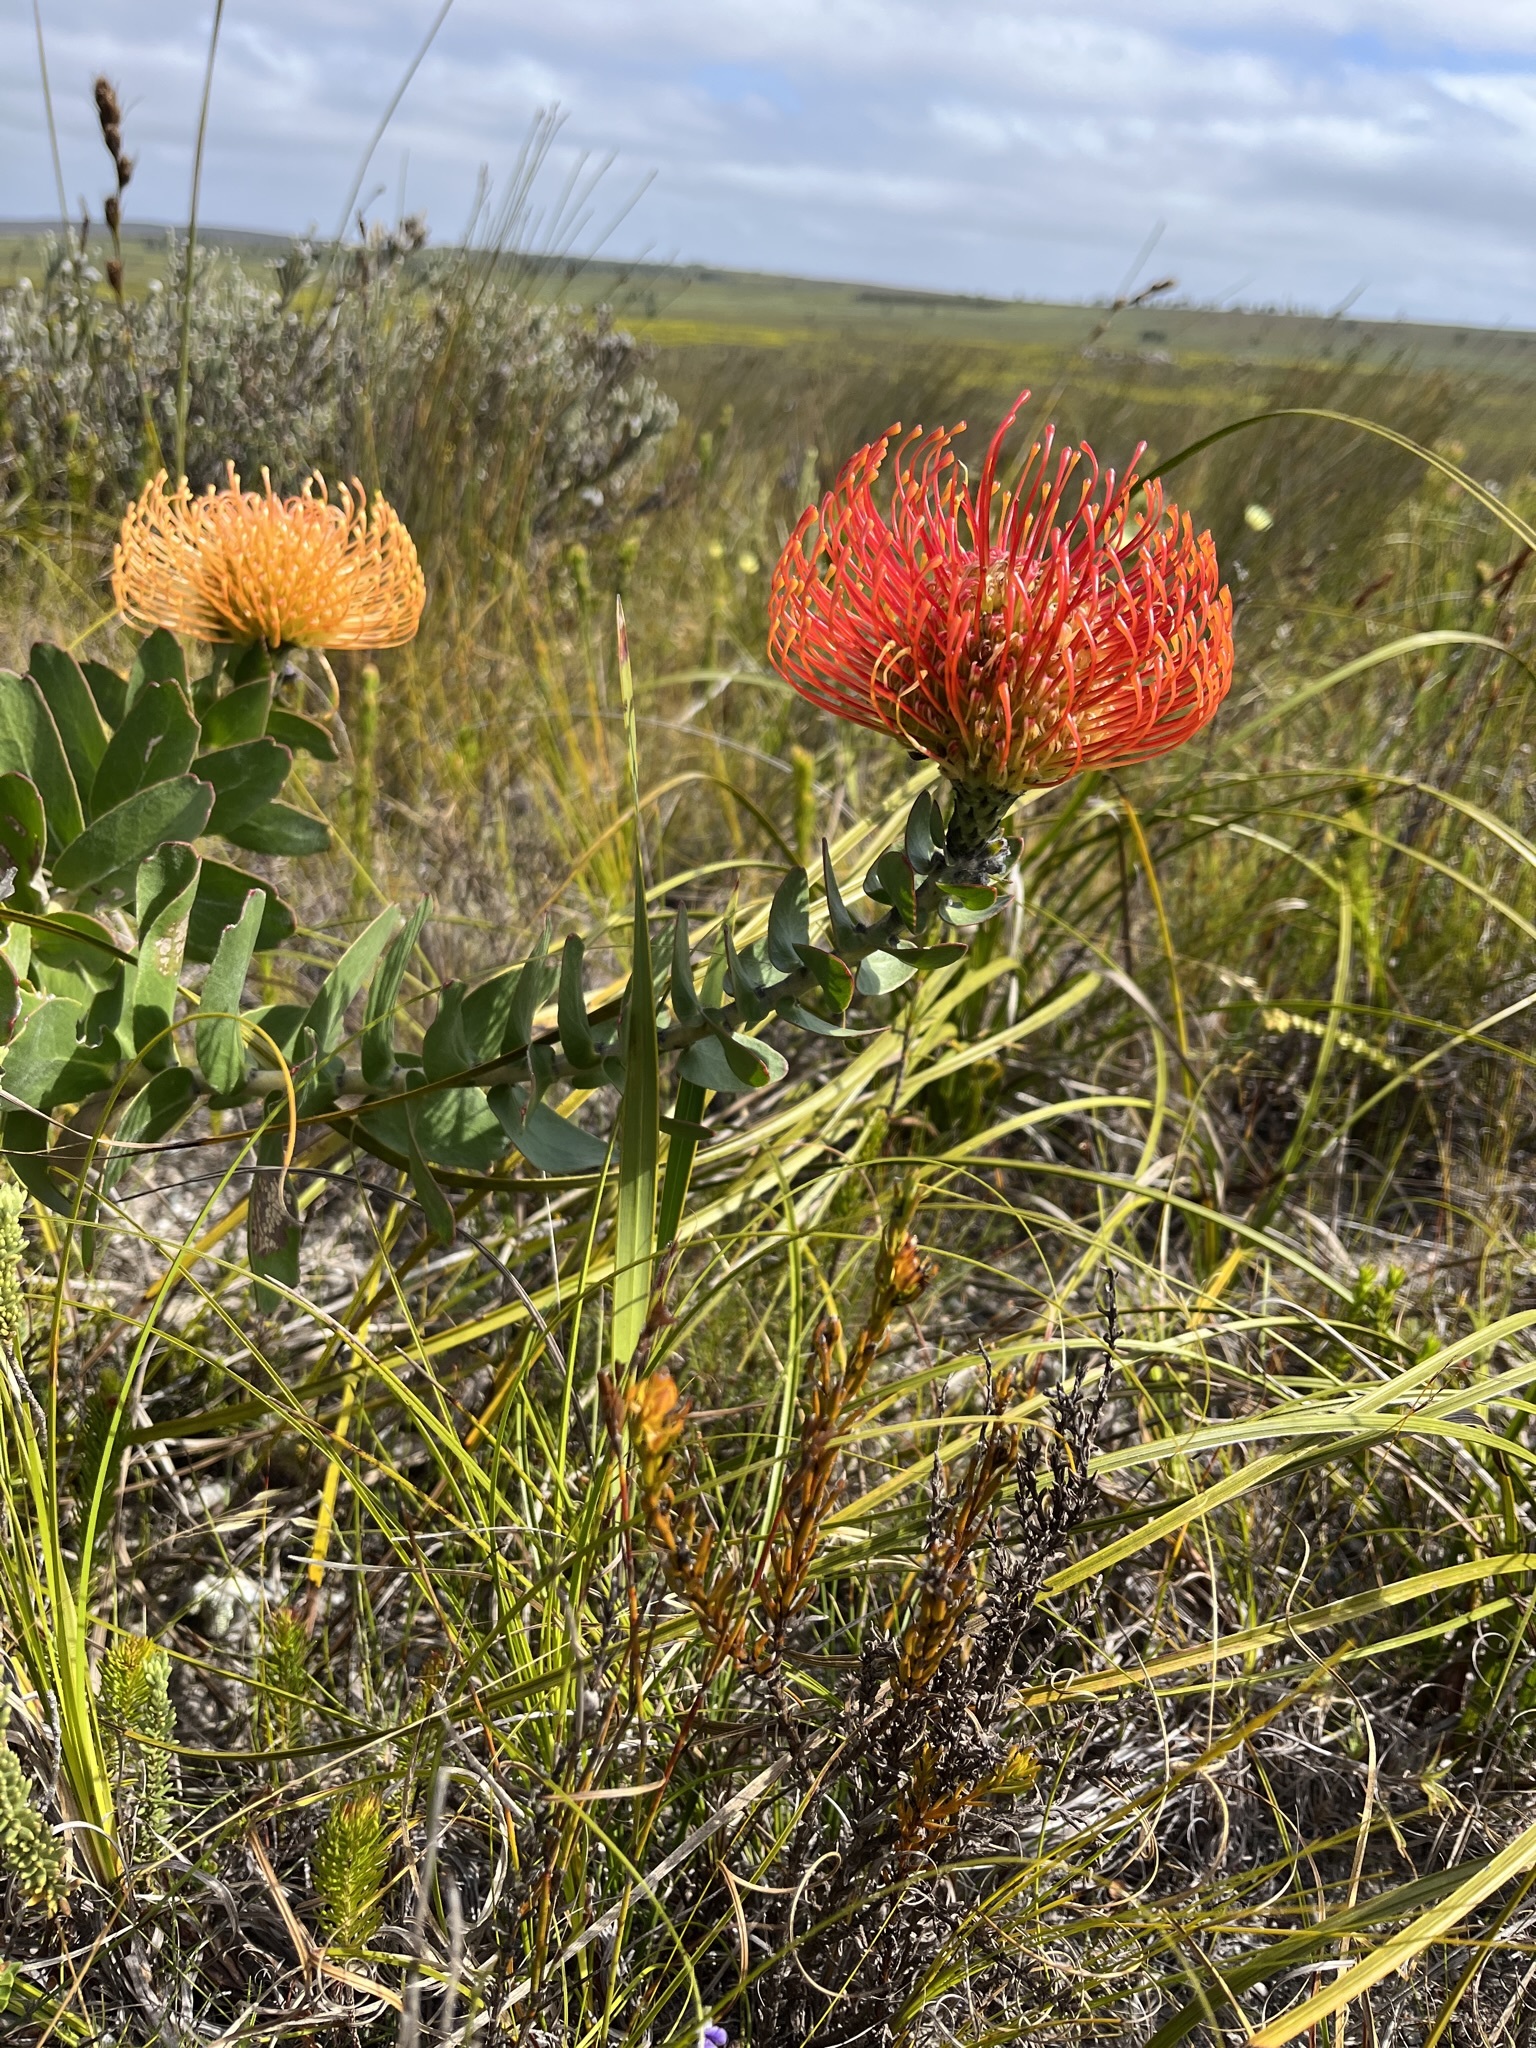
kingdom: Plantae
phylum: Tracheophyta
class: Magnoliopsida
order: Proteales
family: Proteaceae
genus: Leucospermum
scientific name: Leucospermum cordifolium
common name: Red pincushion-protea
